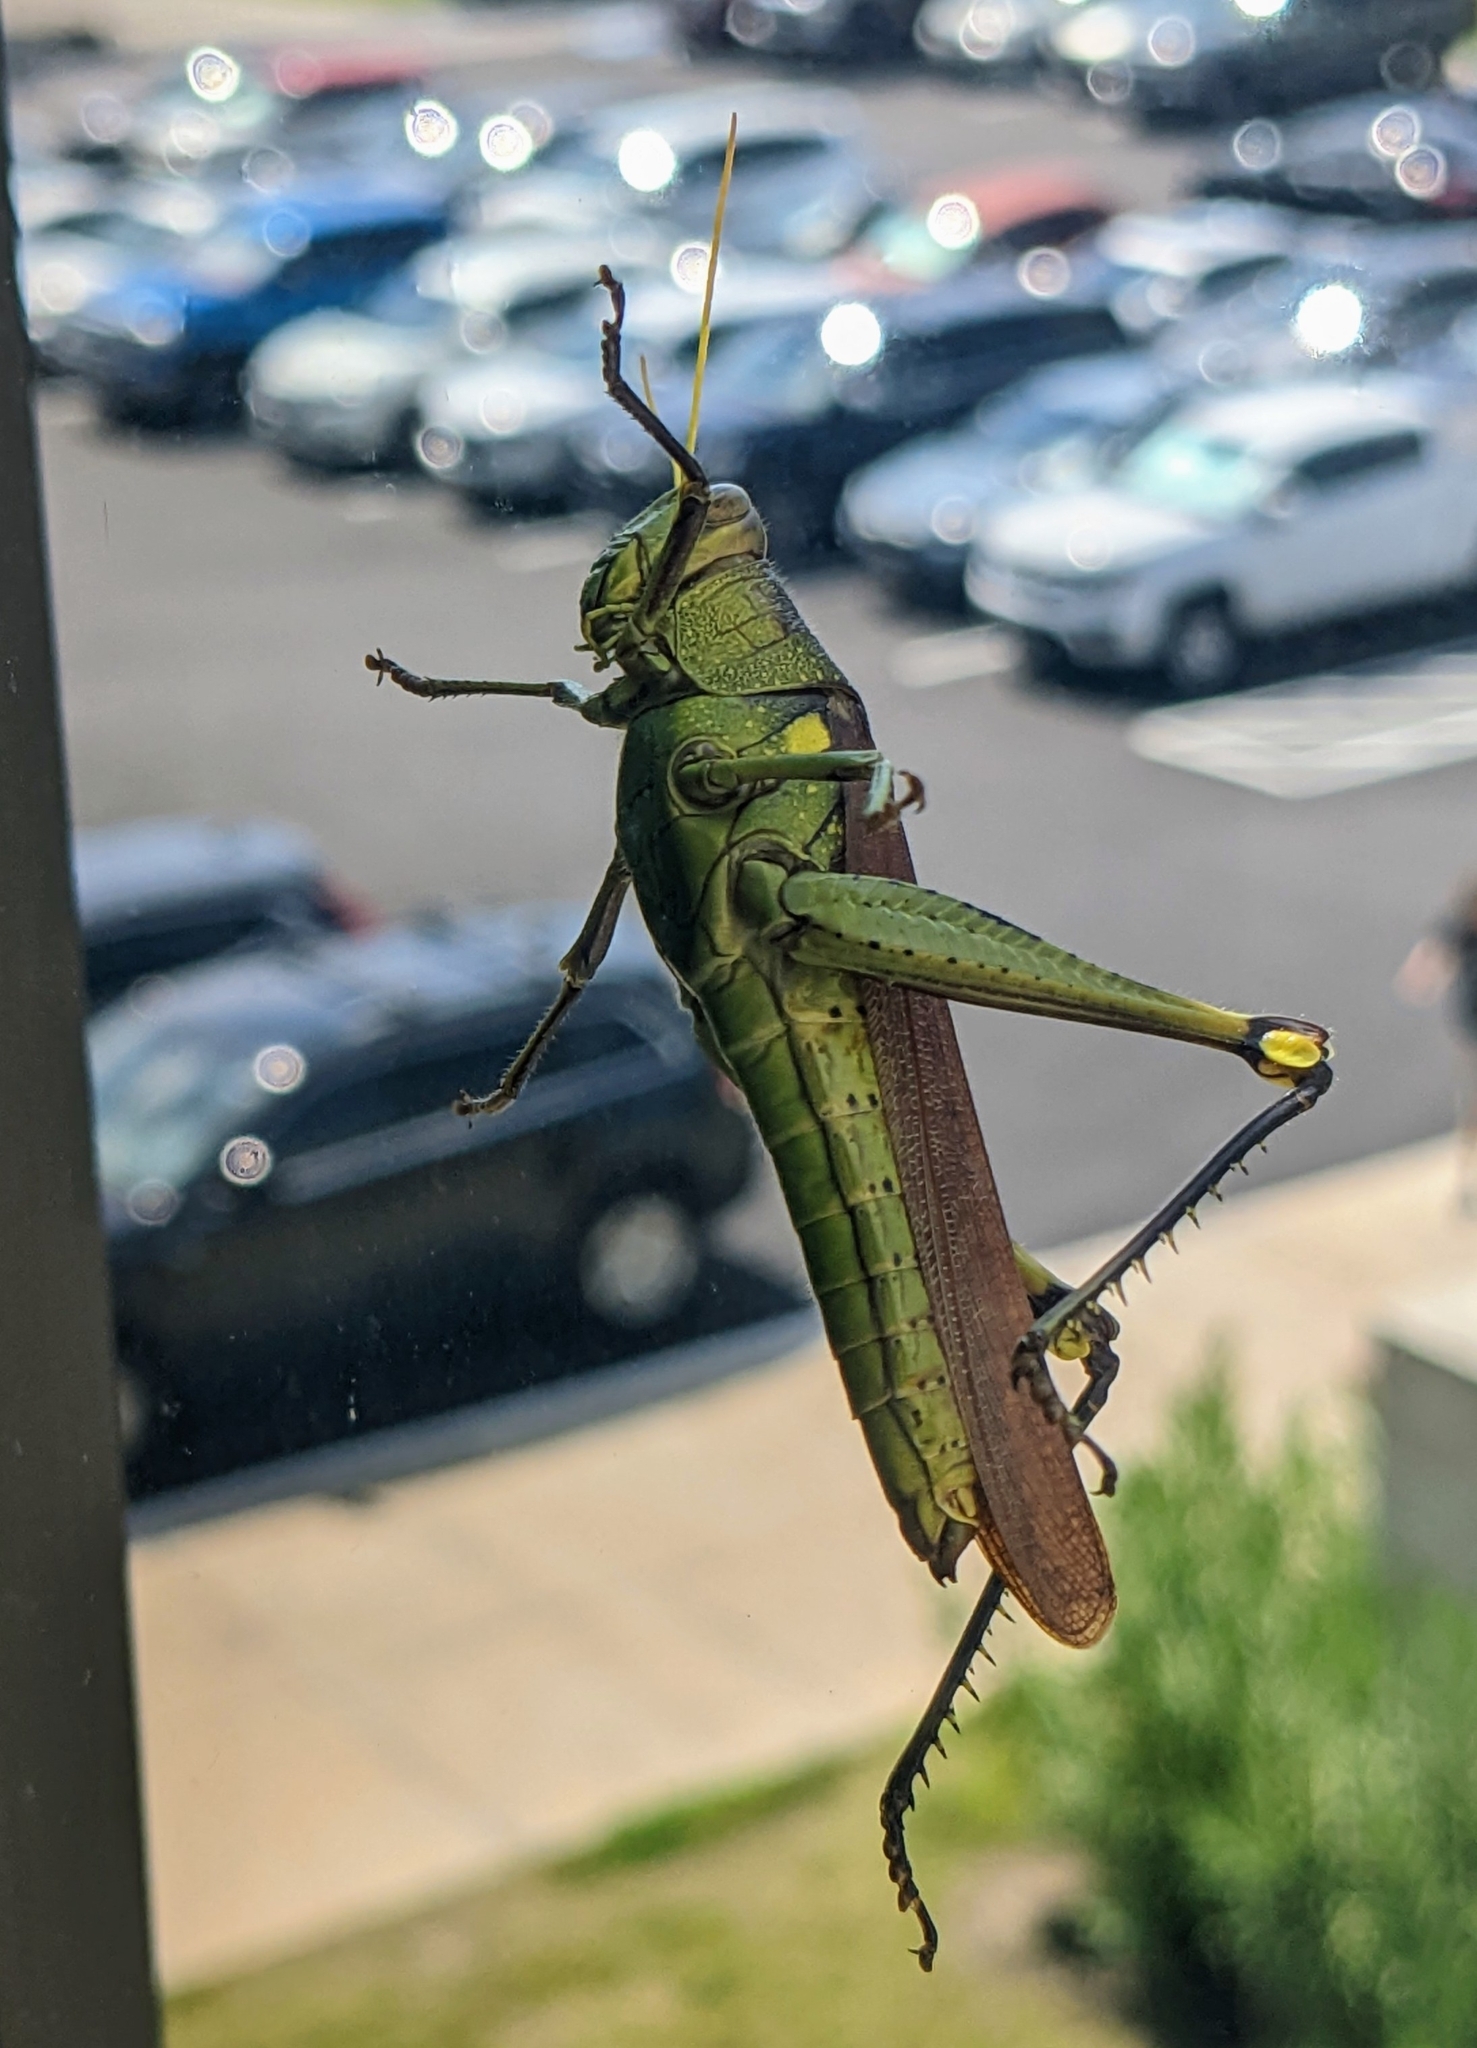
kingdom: Animalia
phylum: Arthropoda
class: Insecta
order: Orthoptera
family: Acrididae
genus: Schistocerca
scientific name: Schistocerca obscura
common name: Obscure bird grasshopper
